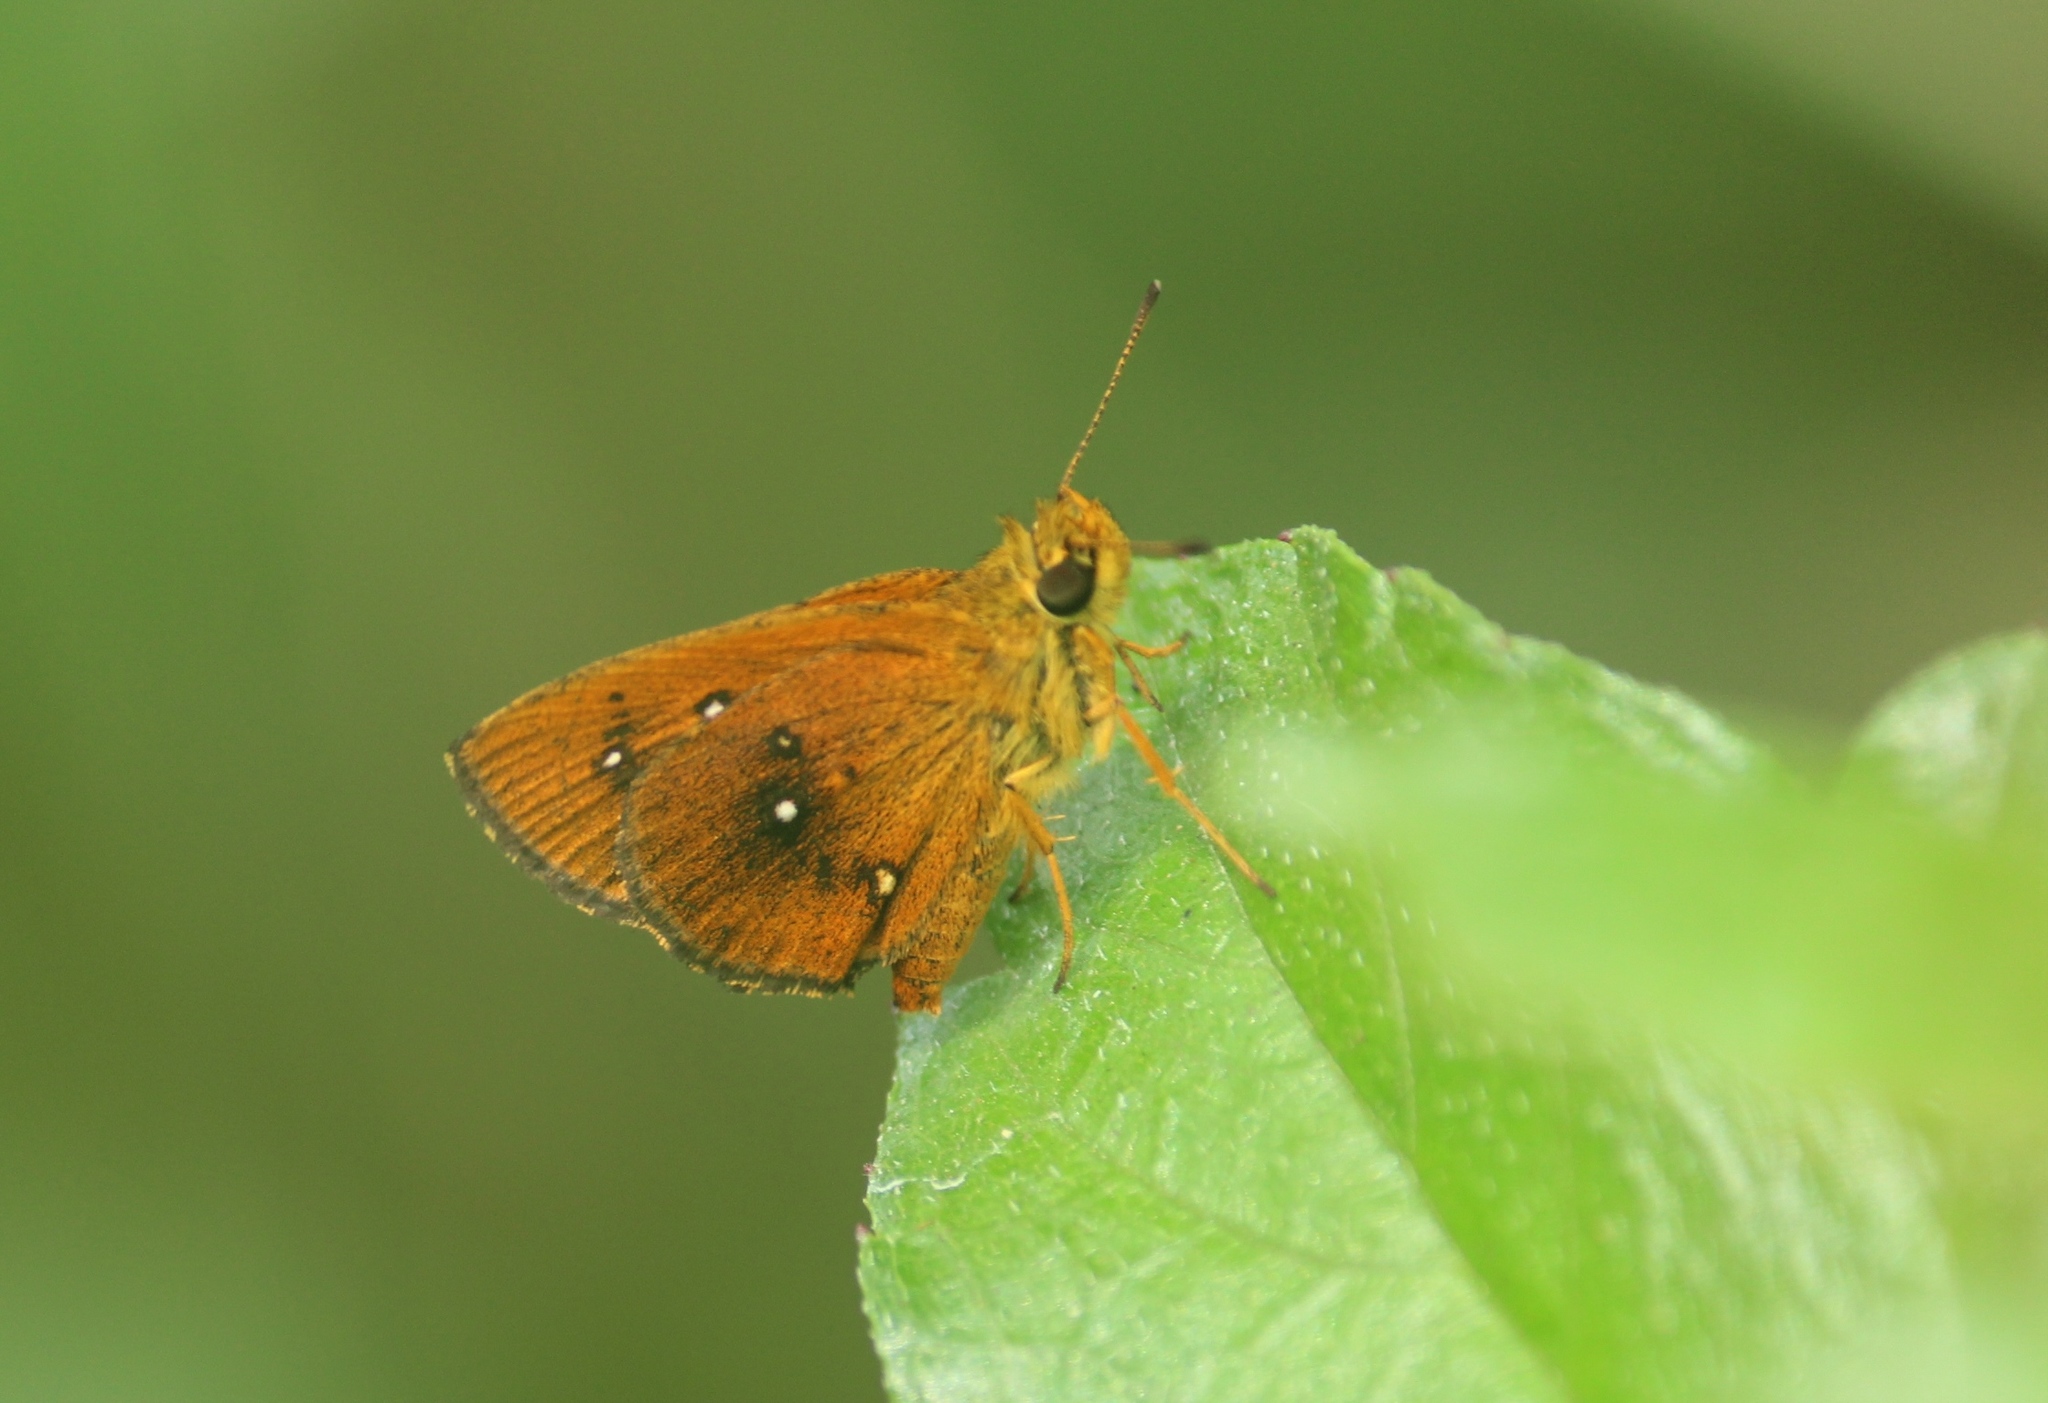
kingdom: Animalia
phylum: Arthropoda
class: Insecta
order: Lepidoptera
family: Hesperiidae
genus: Iambrix
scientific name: Iambrix salsala
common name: Chestnut bob
